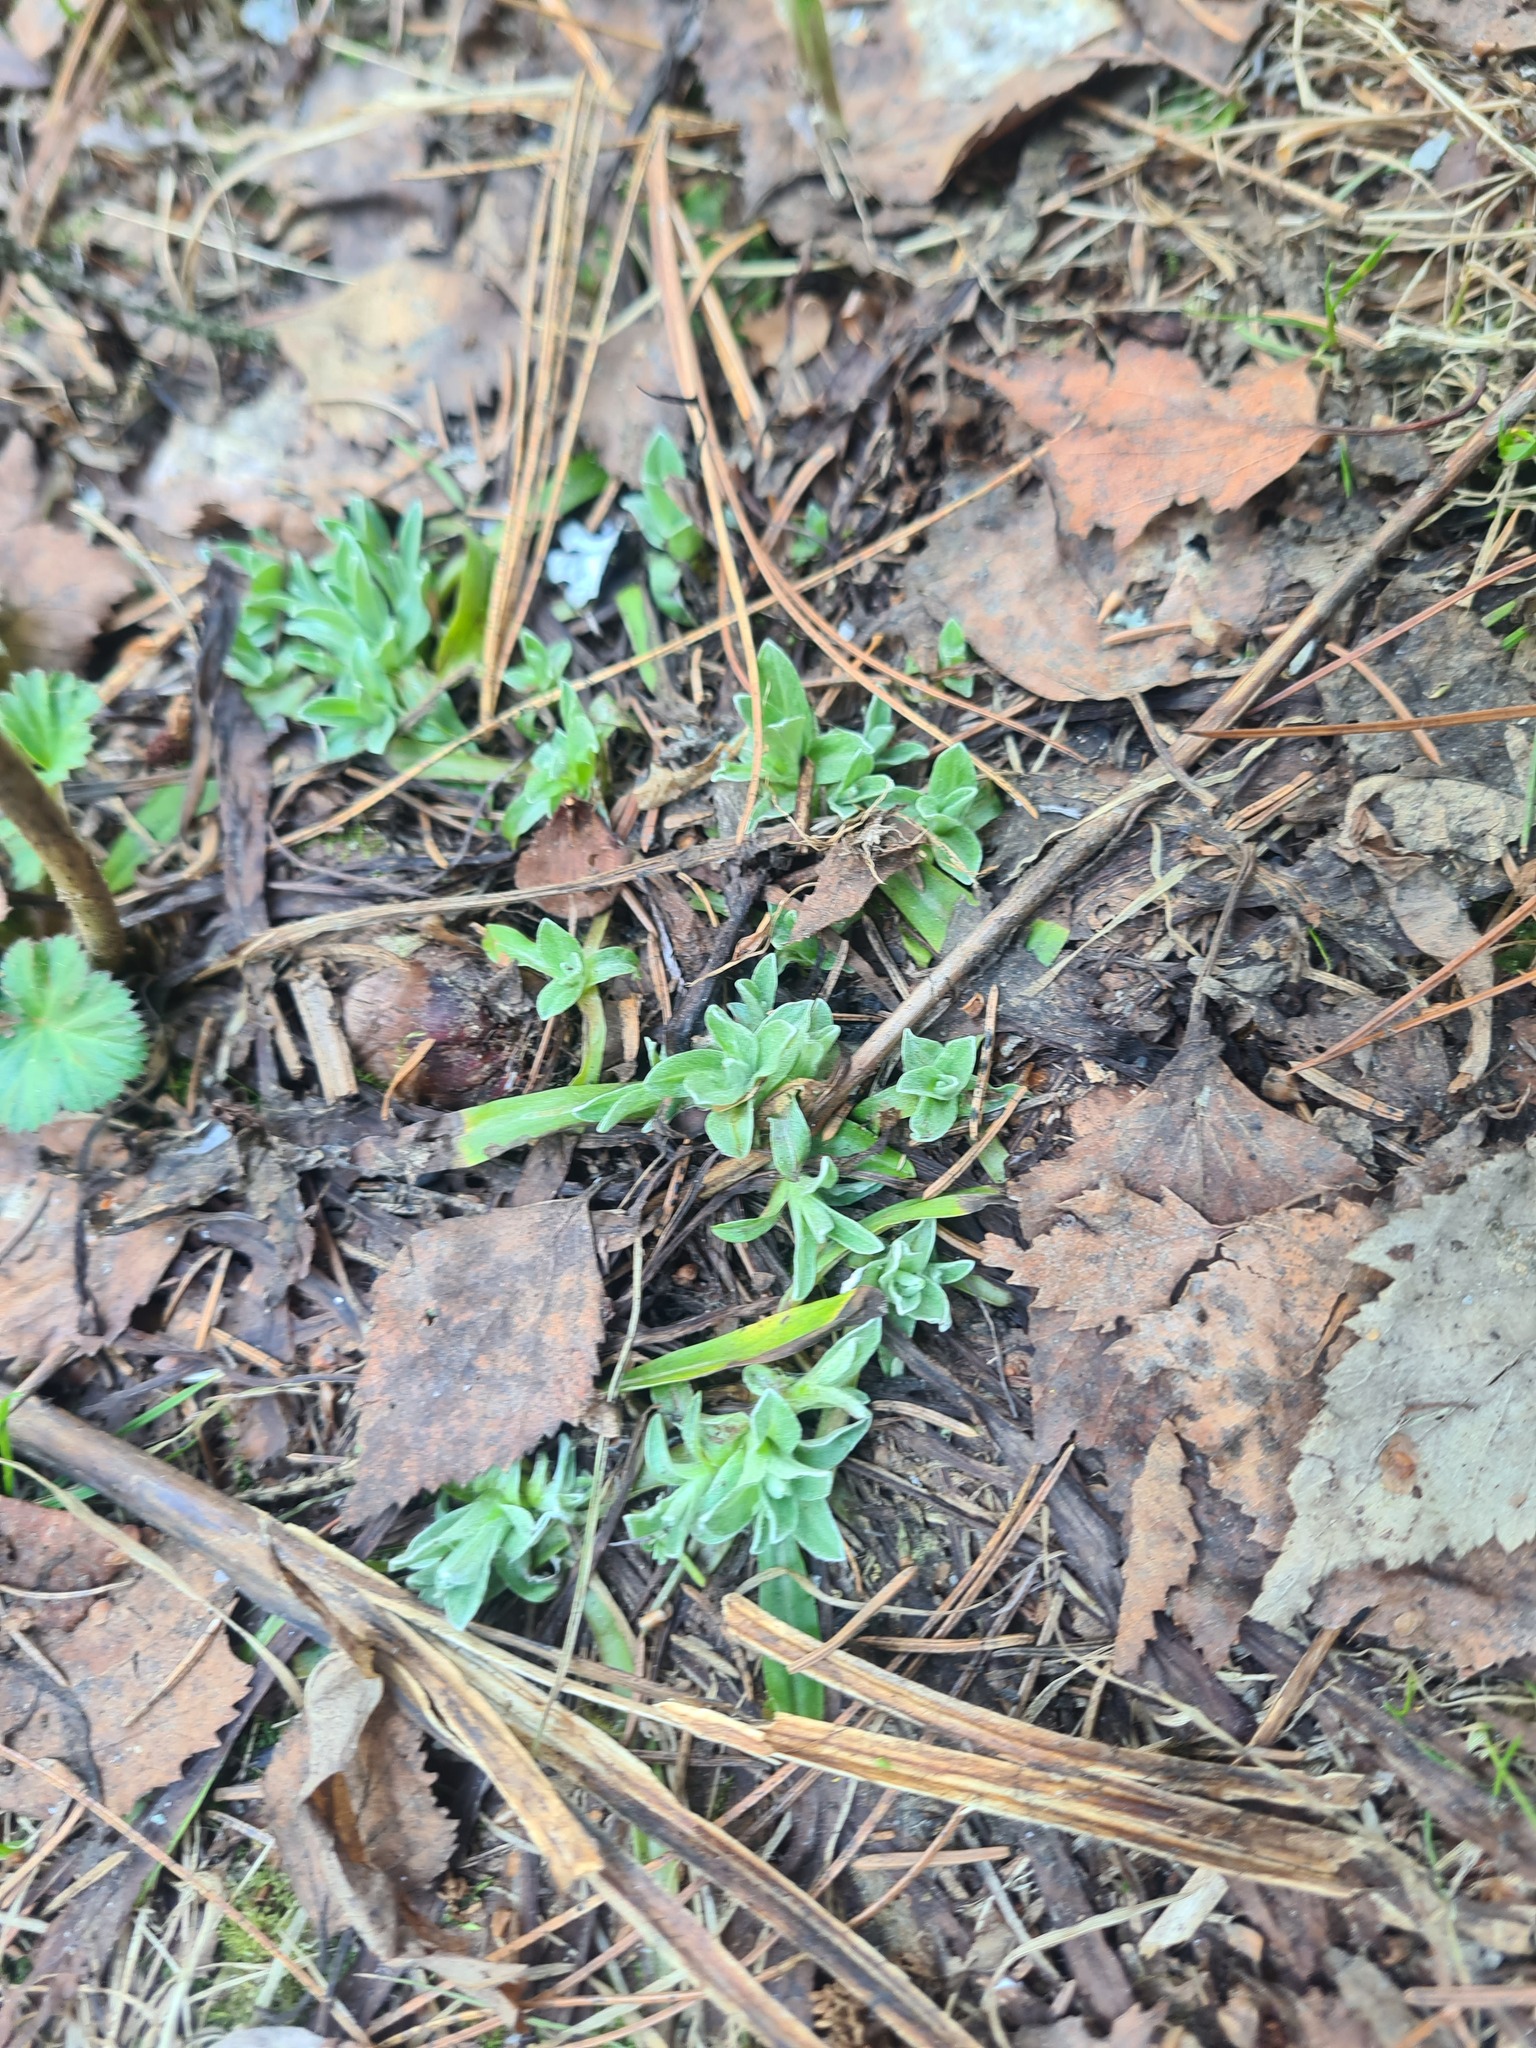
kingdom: Plantae
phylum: Tracheophyta
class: Magnoliopsida
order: Asterales
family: Asteraceae
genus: Antennaria
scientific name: Antennaria dioica
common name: Mountain everlasting
